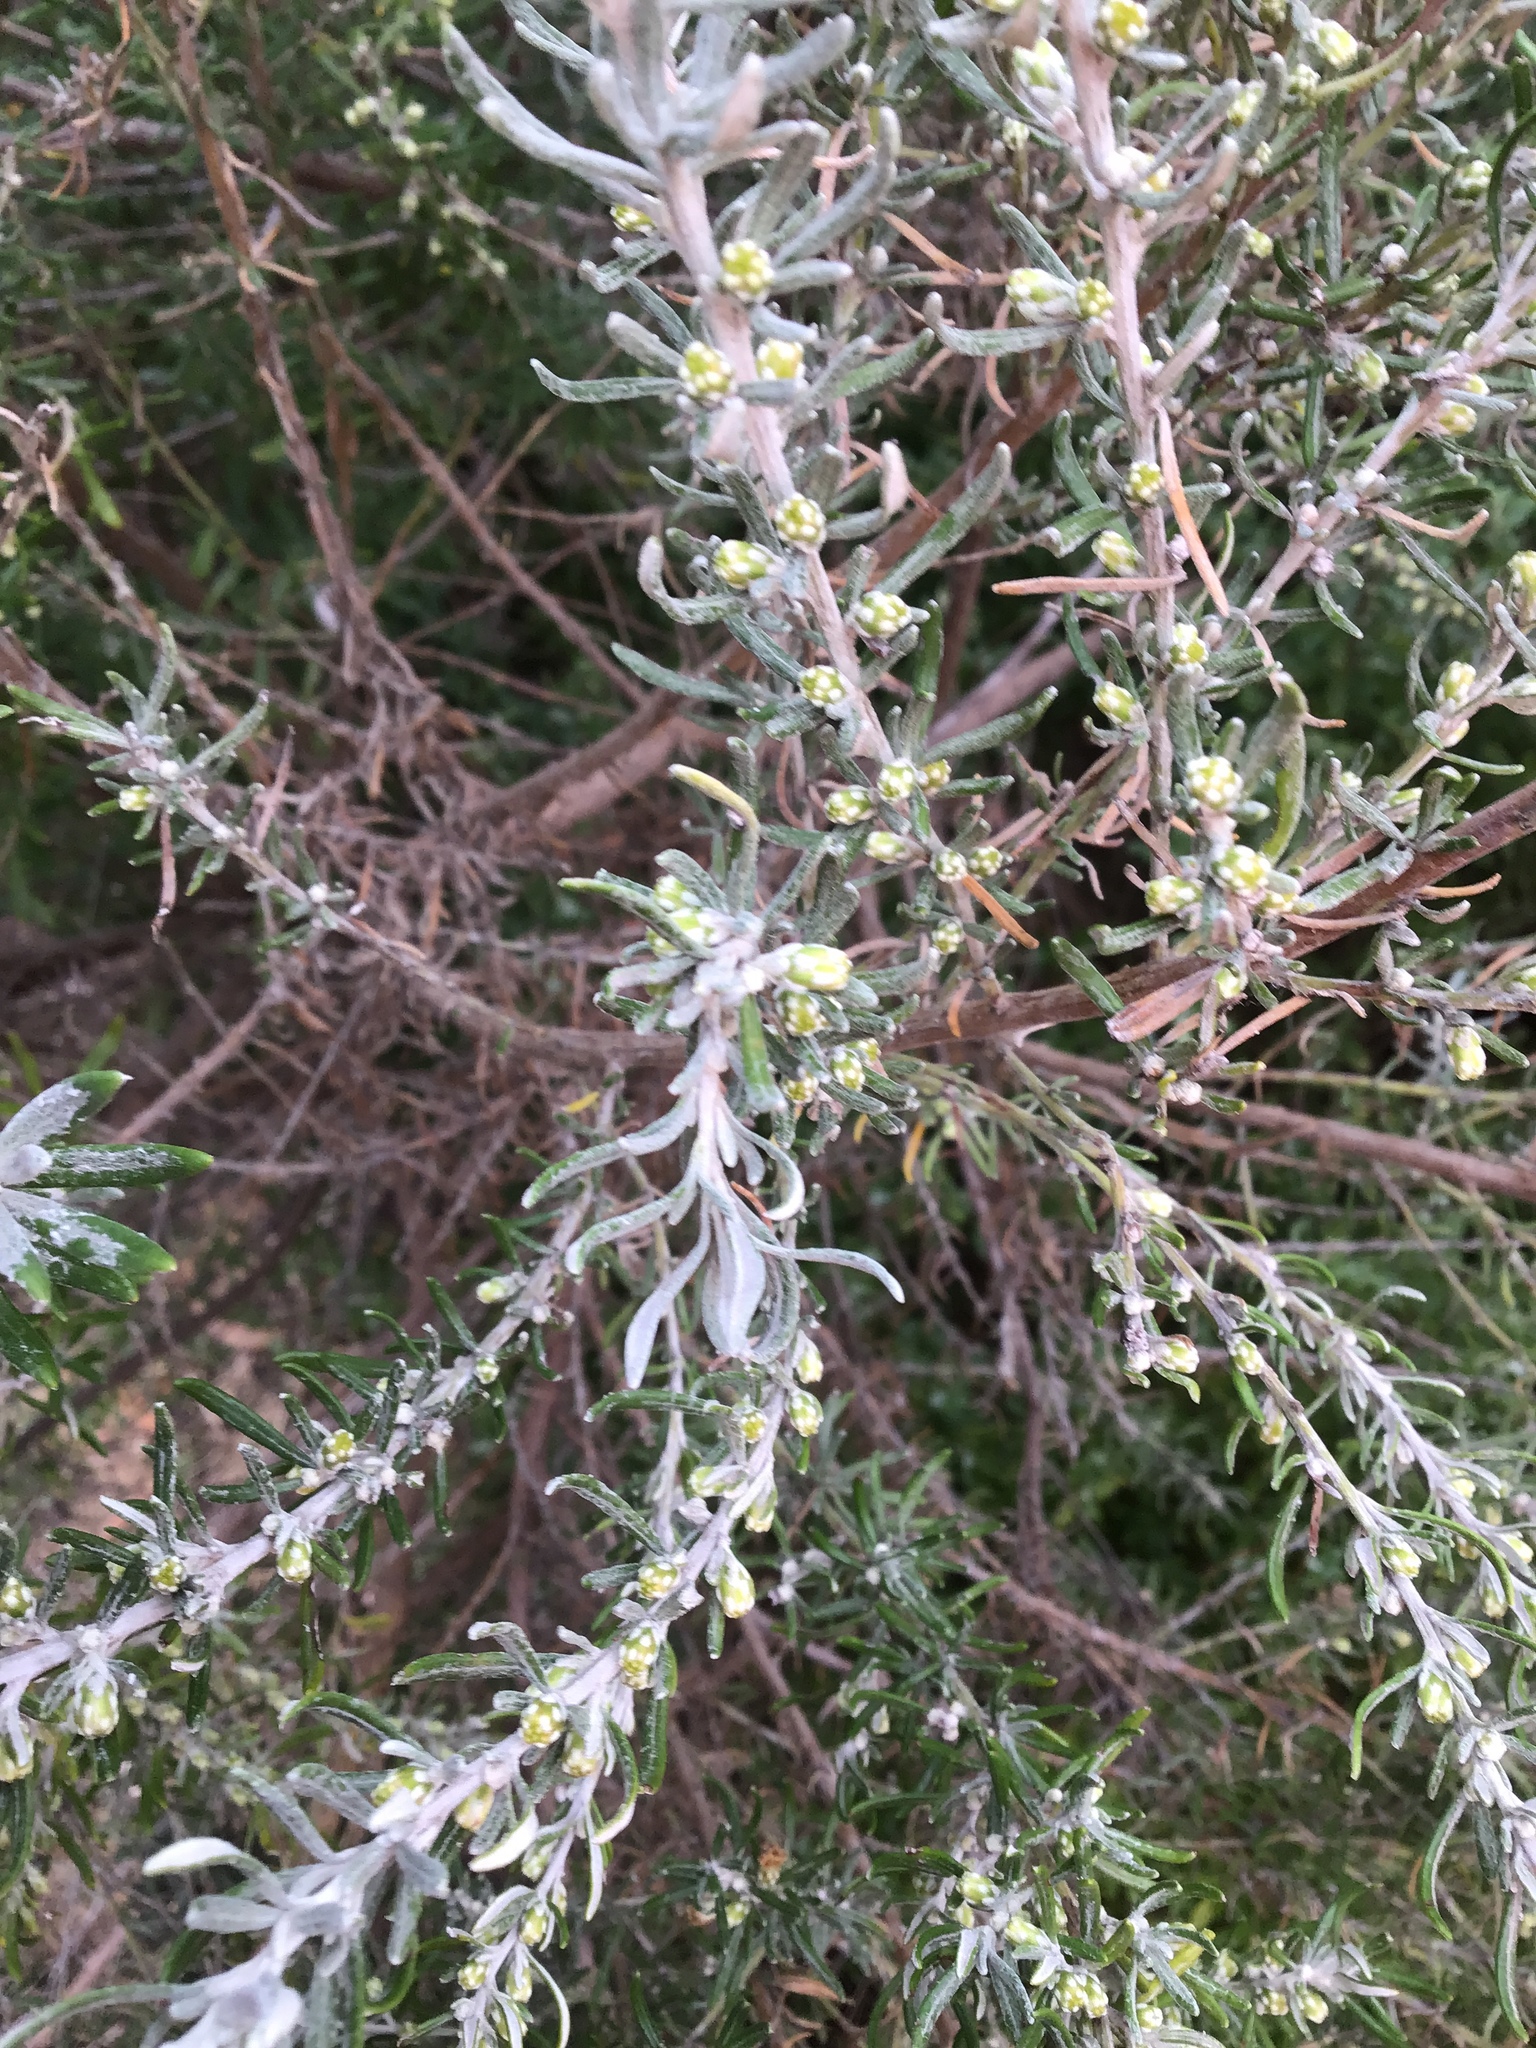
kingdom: Plantae
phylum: Tracheophyta
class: Magnoliopsida
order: Asterales
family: Asteraceae
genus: Olearia
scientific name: Olearia axillaris
